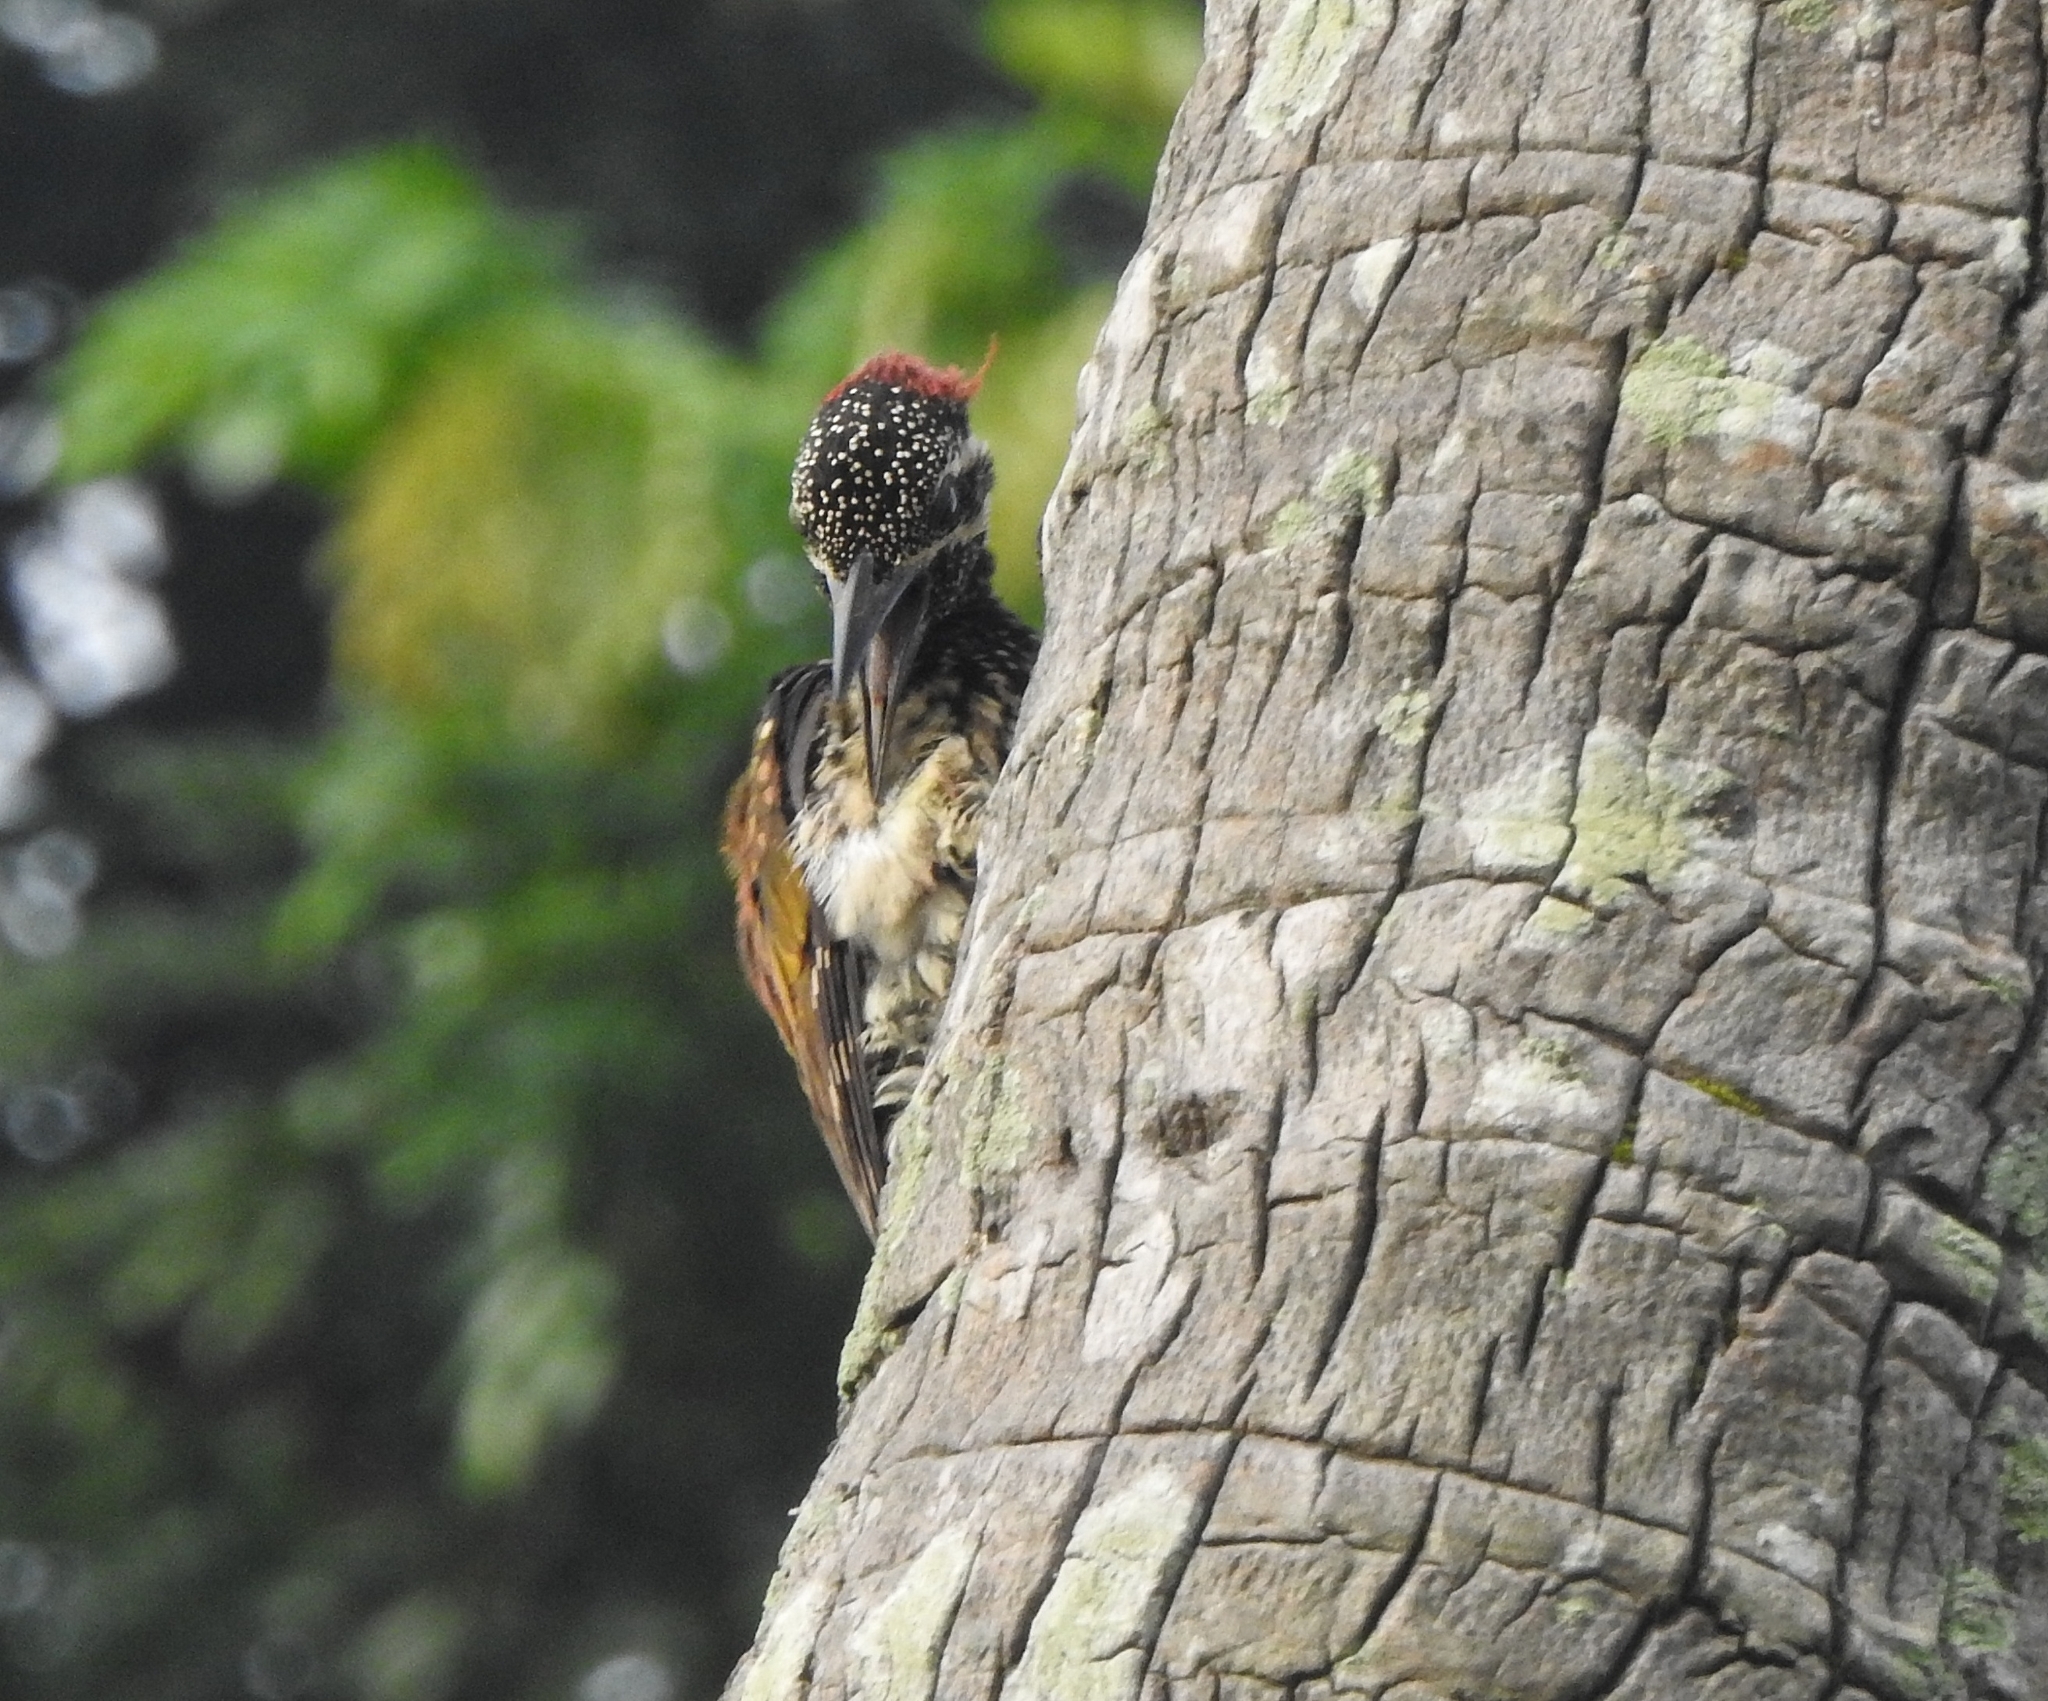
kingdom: Animalia
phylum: Chordata
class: Aves
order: Piciformes
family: Picidae
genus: Dinopium
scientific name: Dinopium benghalense
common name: Black-rumped flameback
